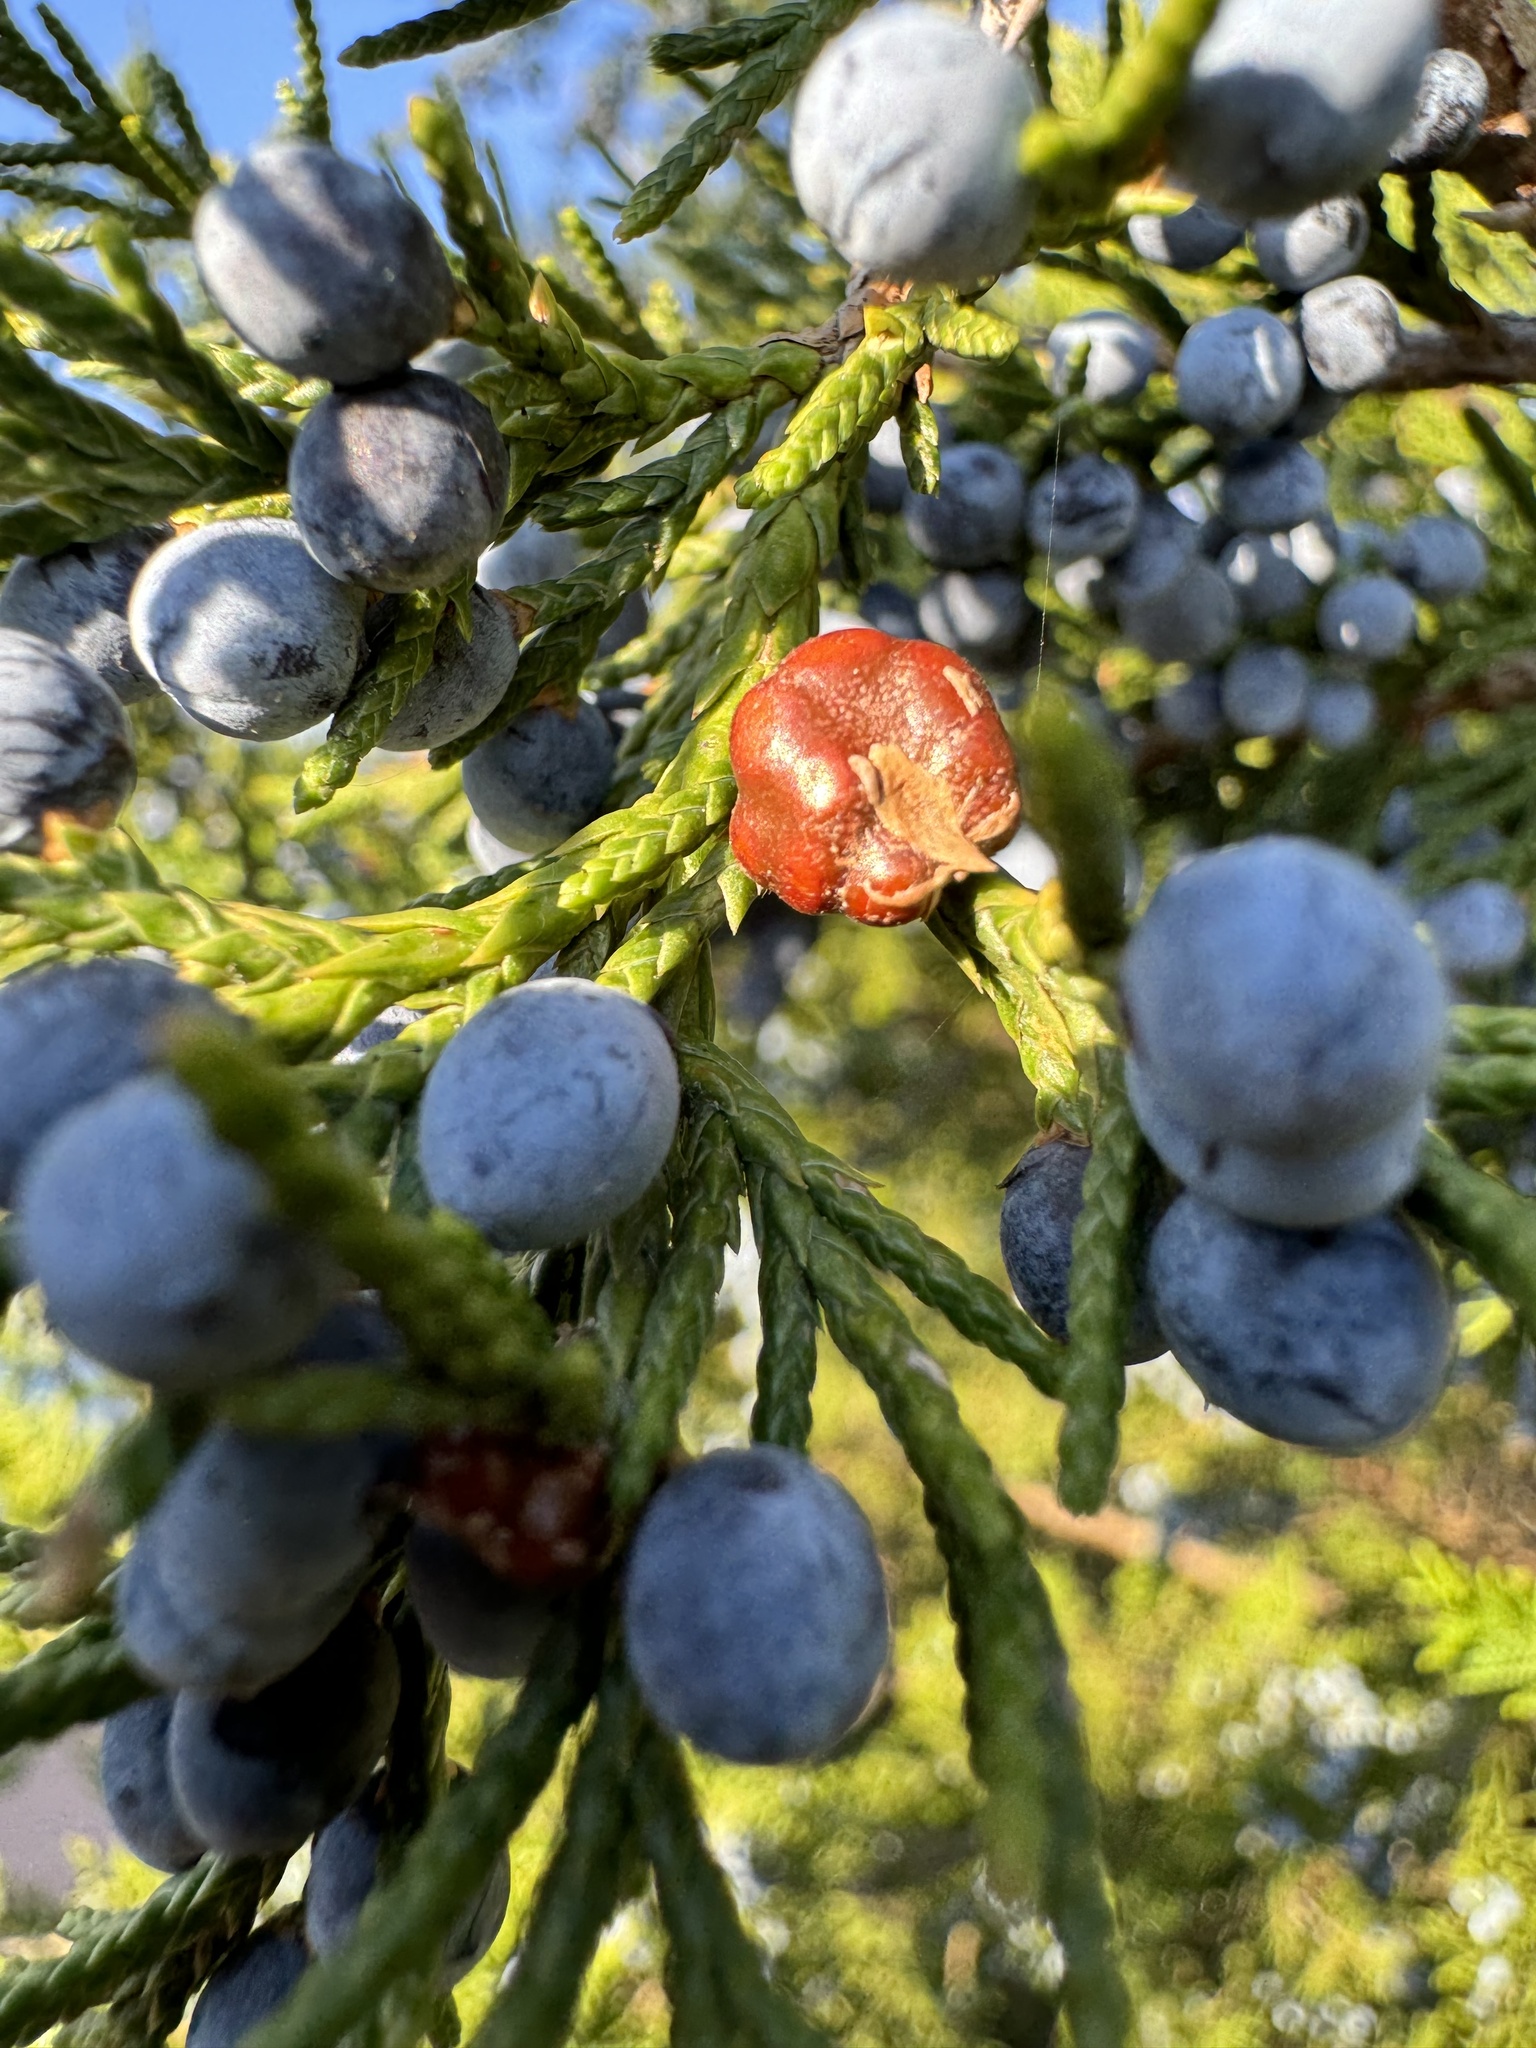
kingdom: Fungi
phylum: Basidiomycota
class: Pucciniomycetes
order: Pucciniales
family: Gymnosporangiaceae
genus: Gymnosporangium
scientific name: Gymnosporangium juniperi-virginianae
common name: Juniper-apple rust
